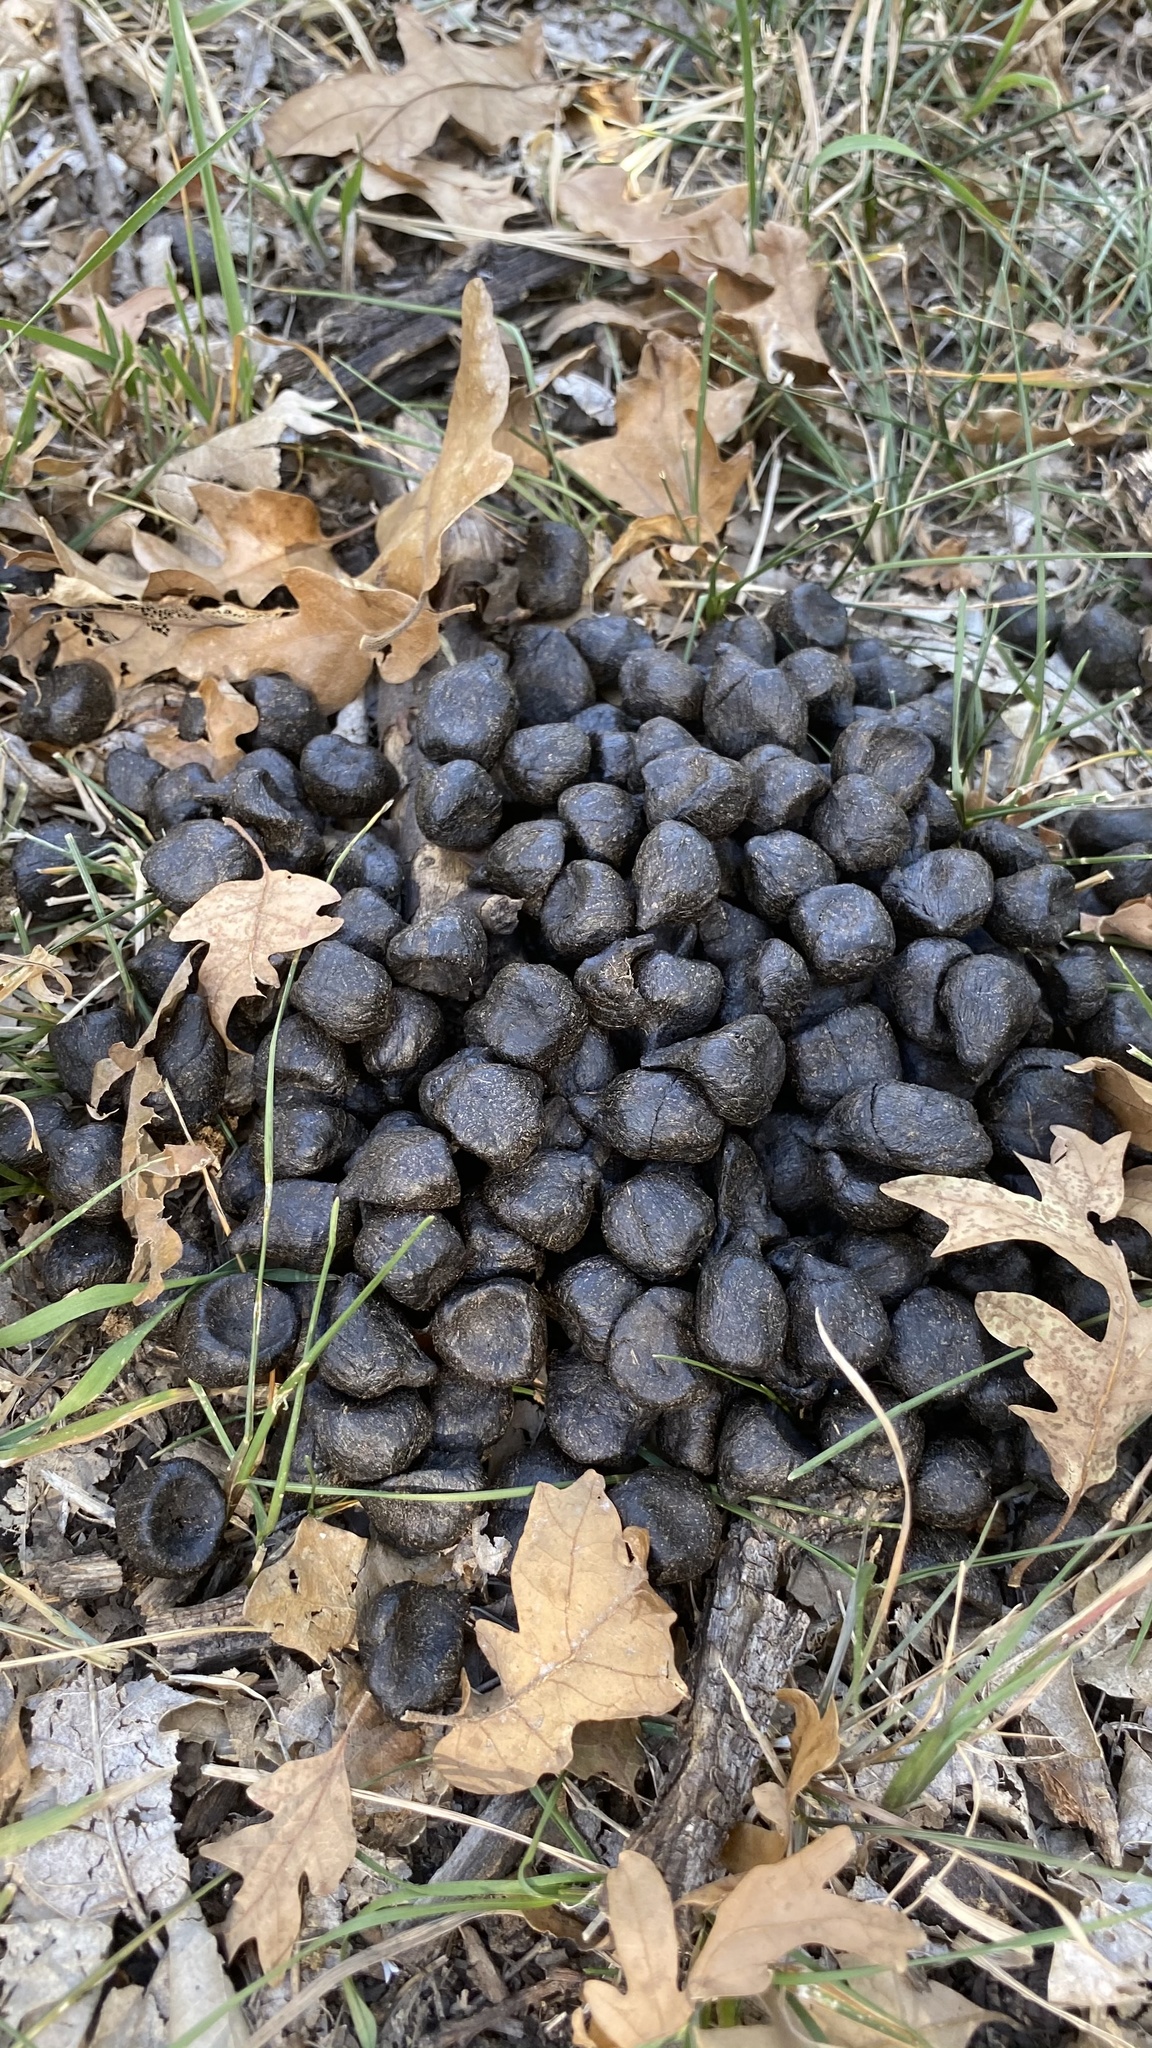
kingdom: Animalia
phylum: Chordata
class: Mammalia
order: Artiodactyla
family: Cervidae
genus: Cervus
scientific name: Cervus elaphus
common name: Red deer
